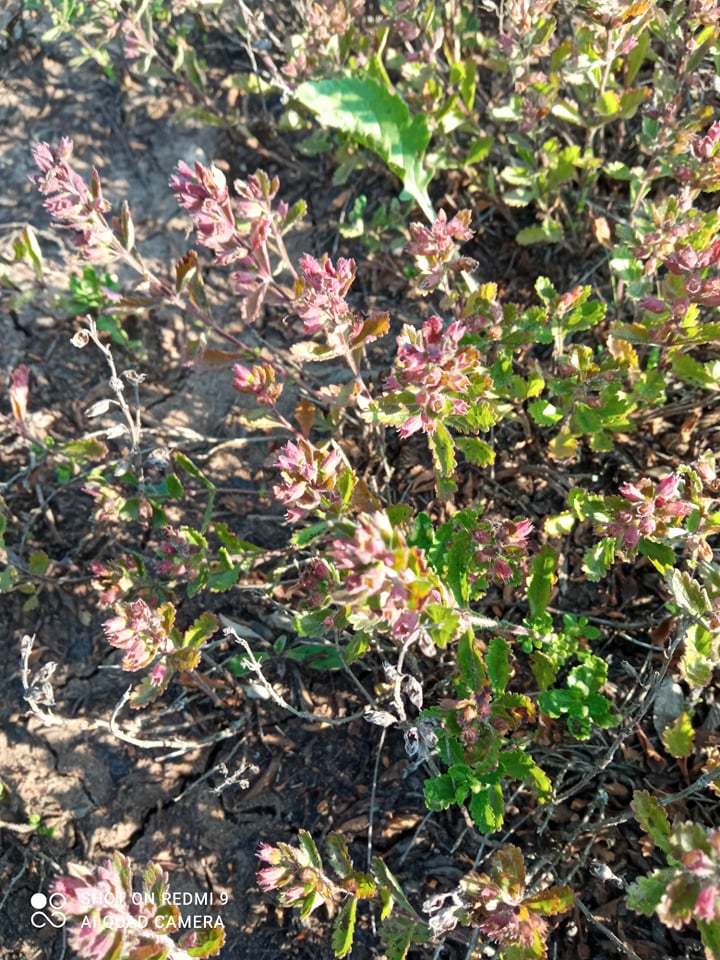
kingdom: Plantae
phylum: Tracheophyta
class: Magnoliopsida
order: Lamiales
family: Lamiaceae
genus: Teucrium
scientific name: Teucrium chamaedrys
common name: Wall germander
